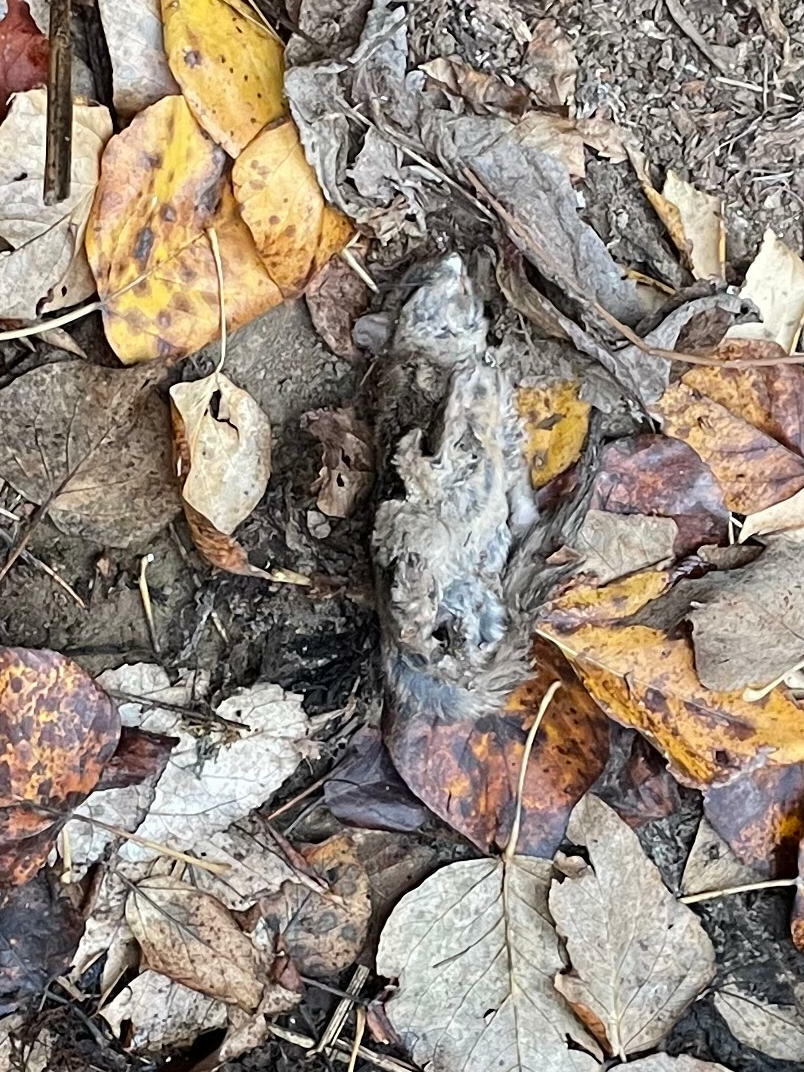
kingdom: Animalia
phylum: Chordata
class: Mammalia
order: Rodentia
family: Sciuridae
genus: Glaucomys
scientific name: Glaucomys
